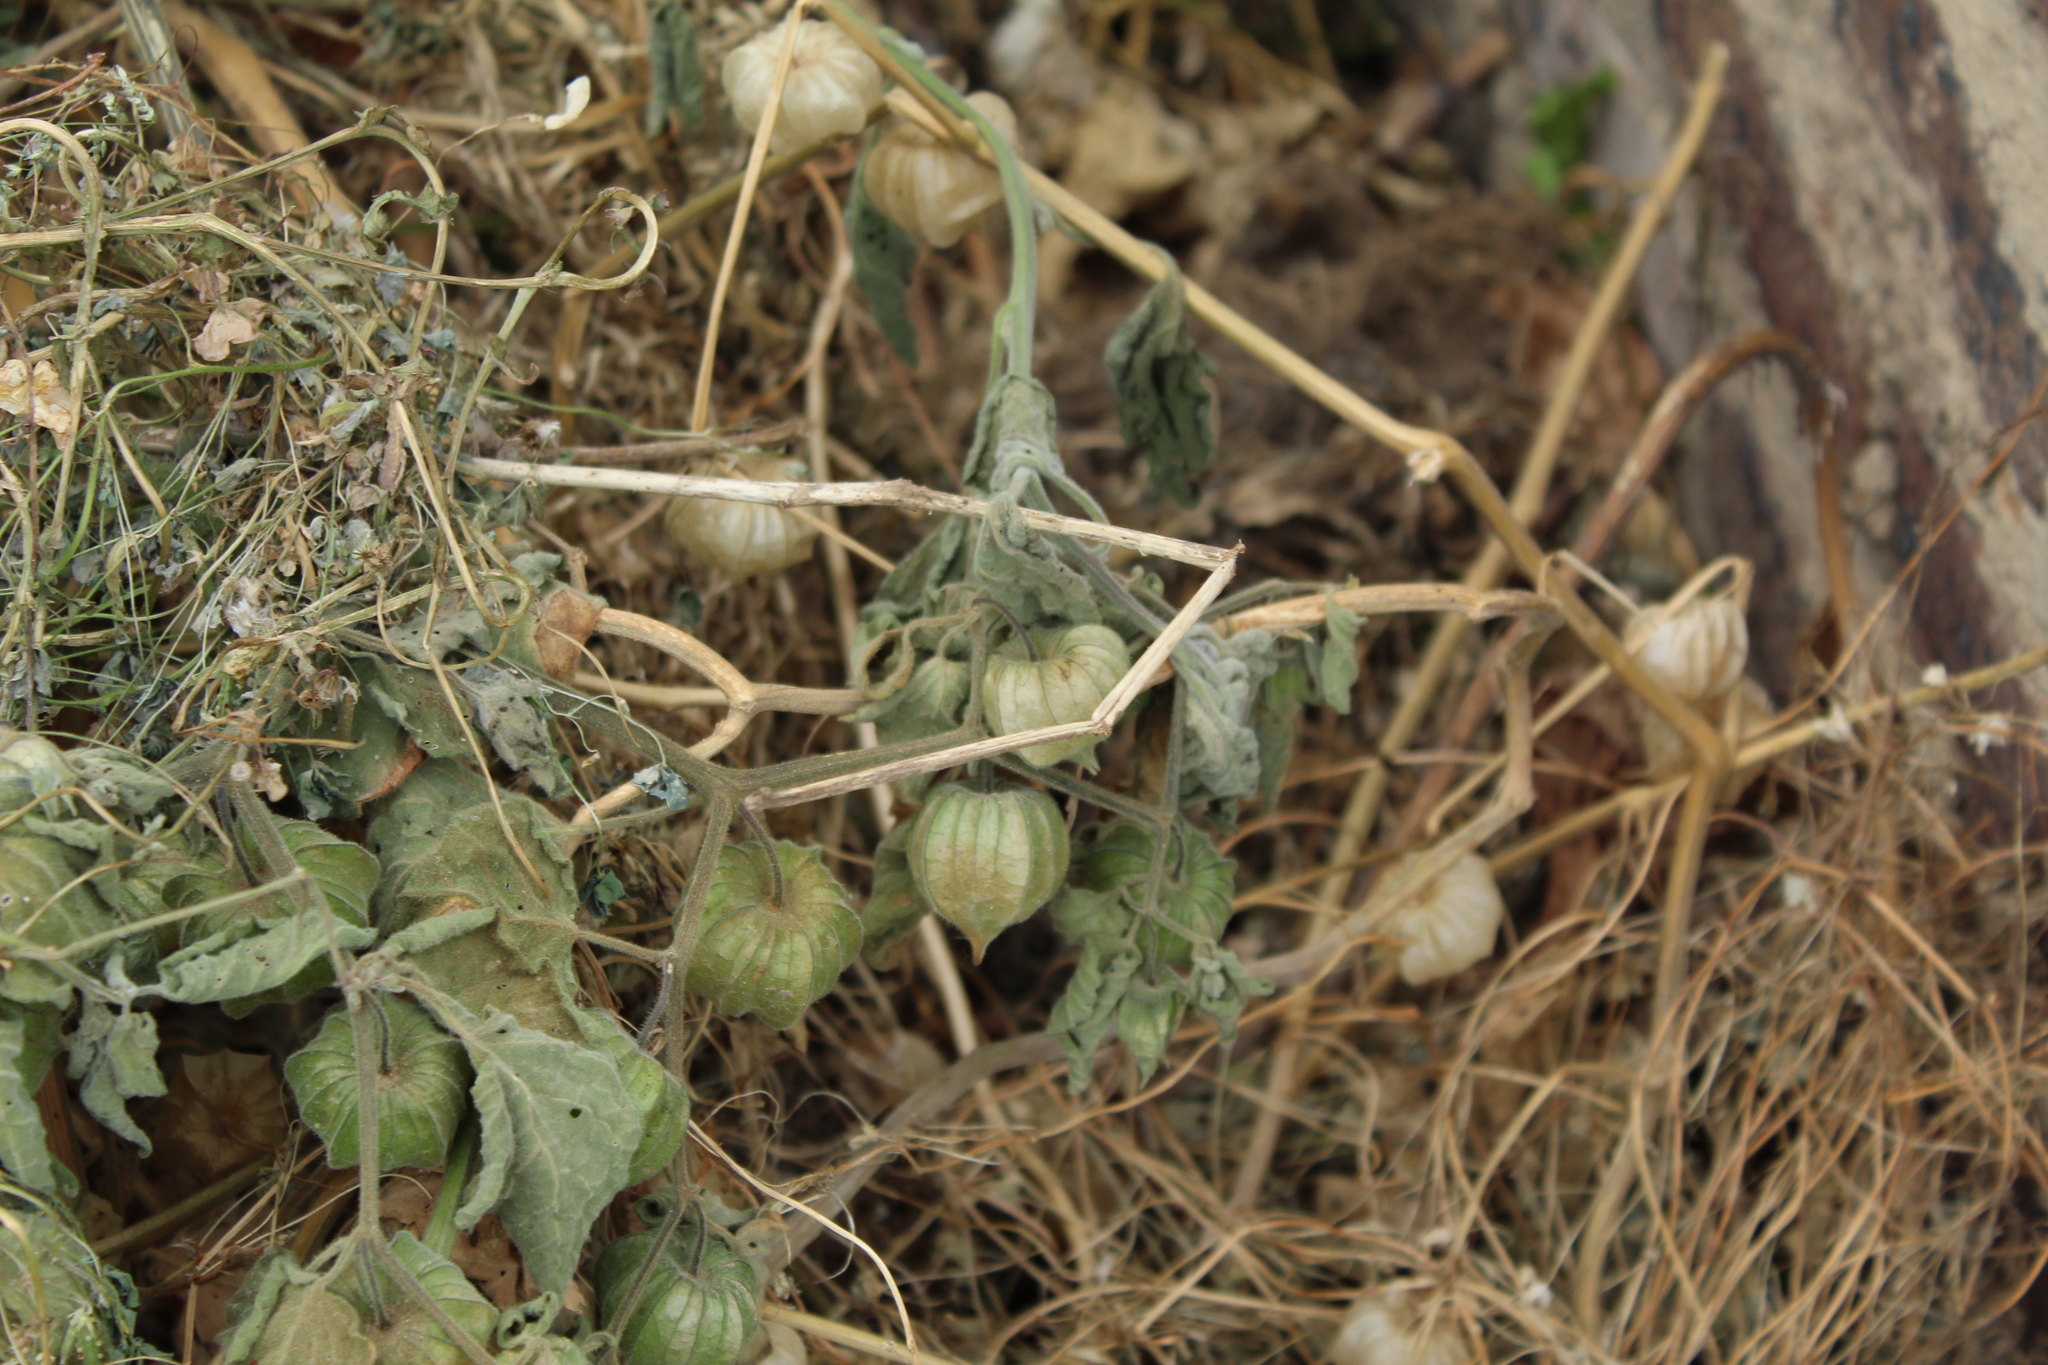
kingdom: Plantae
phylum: Tracheophyta
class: Magnoliopsida
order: Solanales
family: Solanaceae
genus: Physalis
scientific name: Physalis peruviana
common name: Cape-gooseberry
